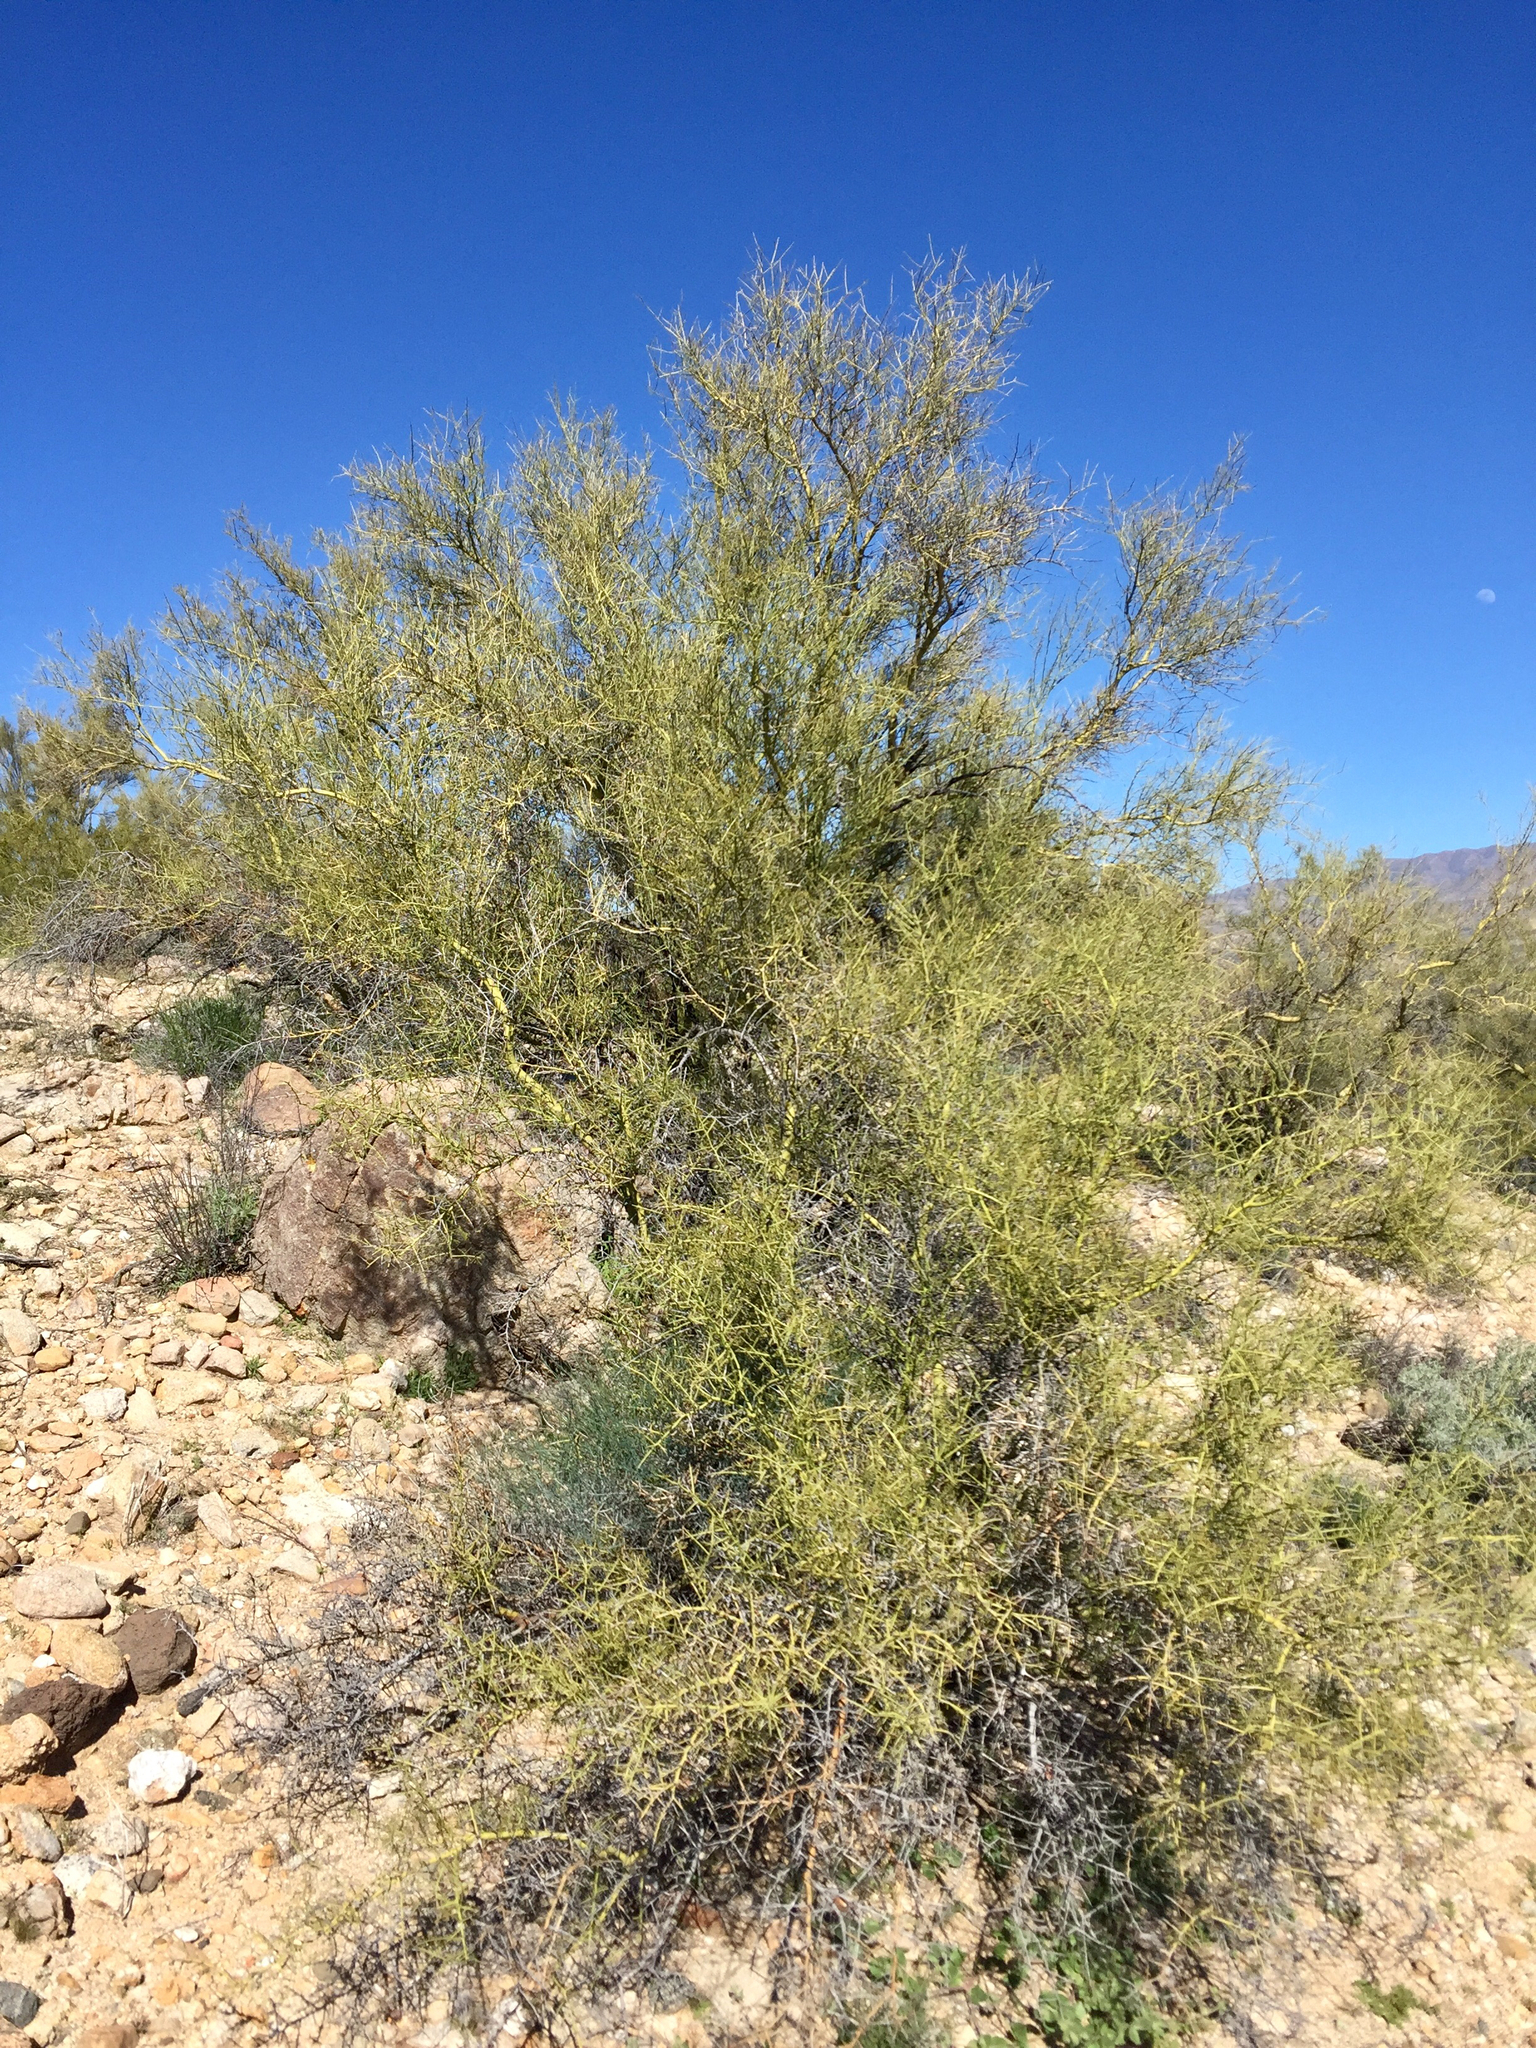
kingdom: Plantae
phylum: Tracheophyta
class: Magnoliopsida
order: Fabales
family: Fabaceae
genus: Parkinsonia
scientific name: Parkinsonia microphylla
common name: Yellow paloverde
